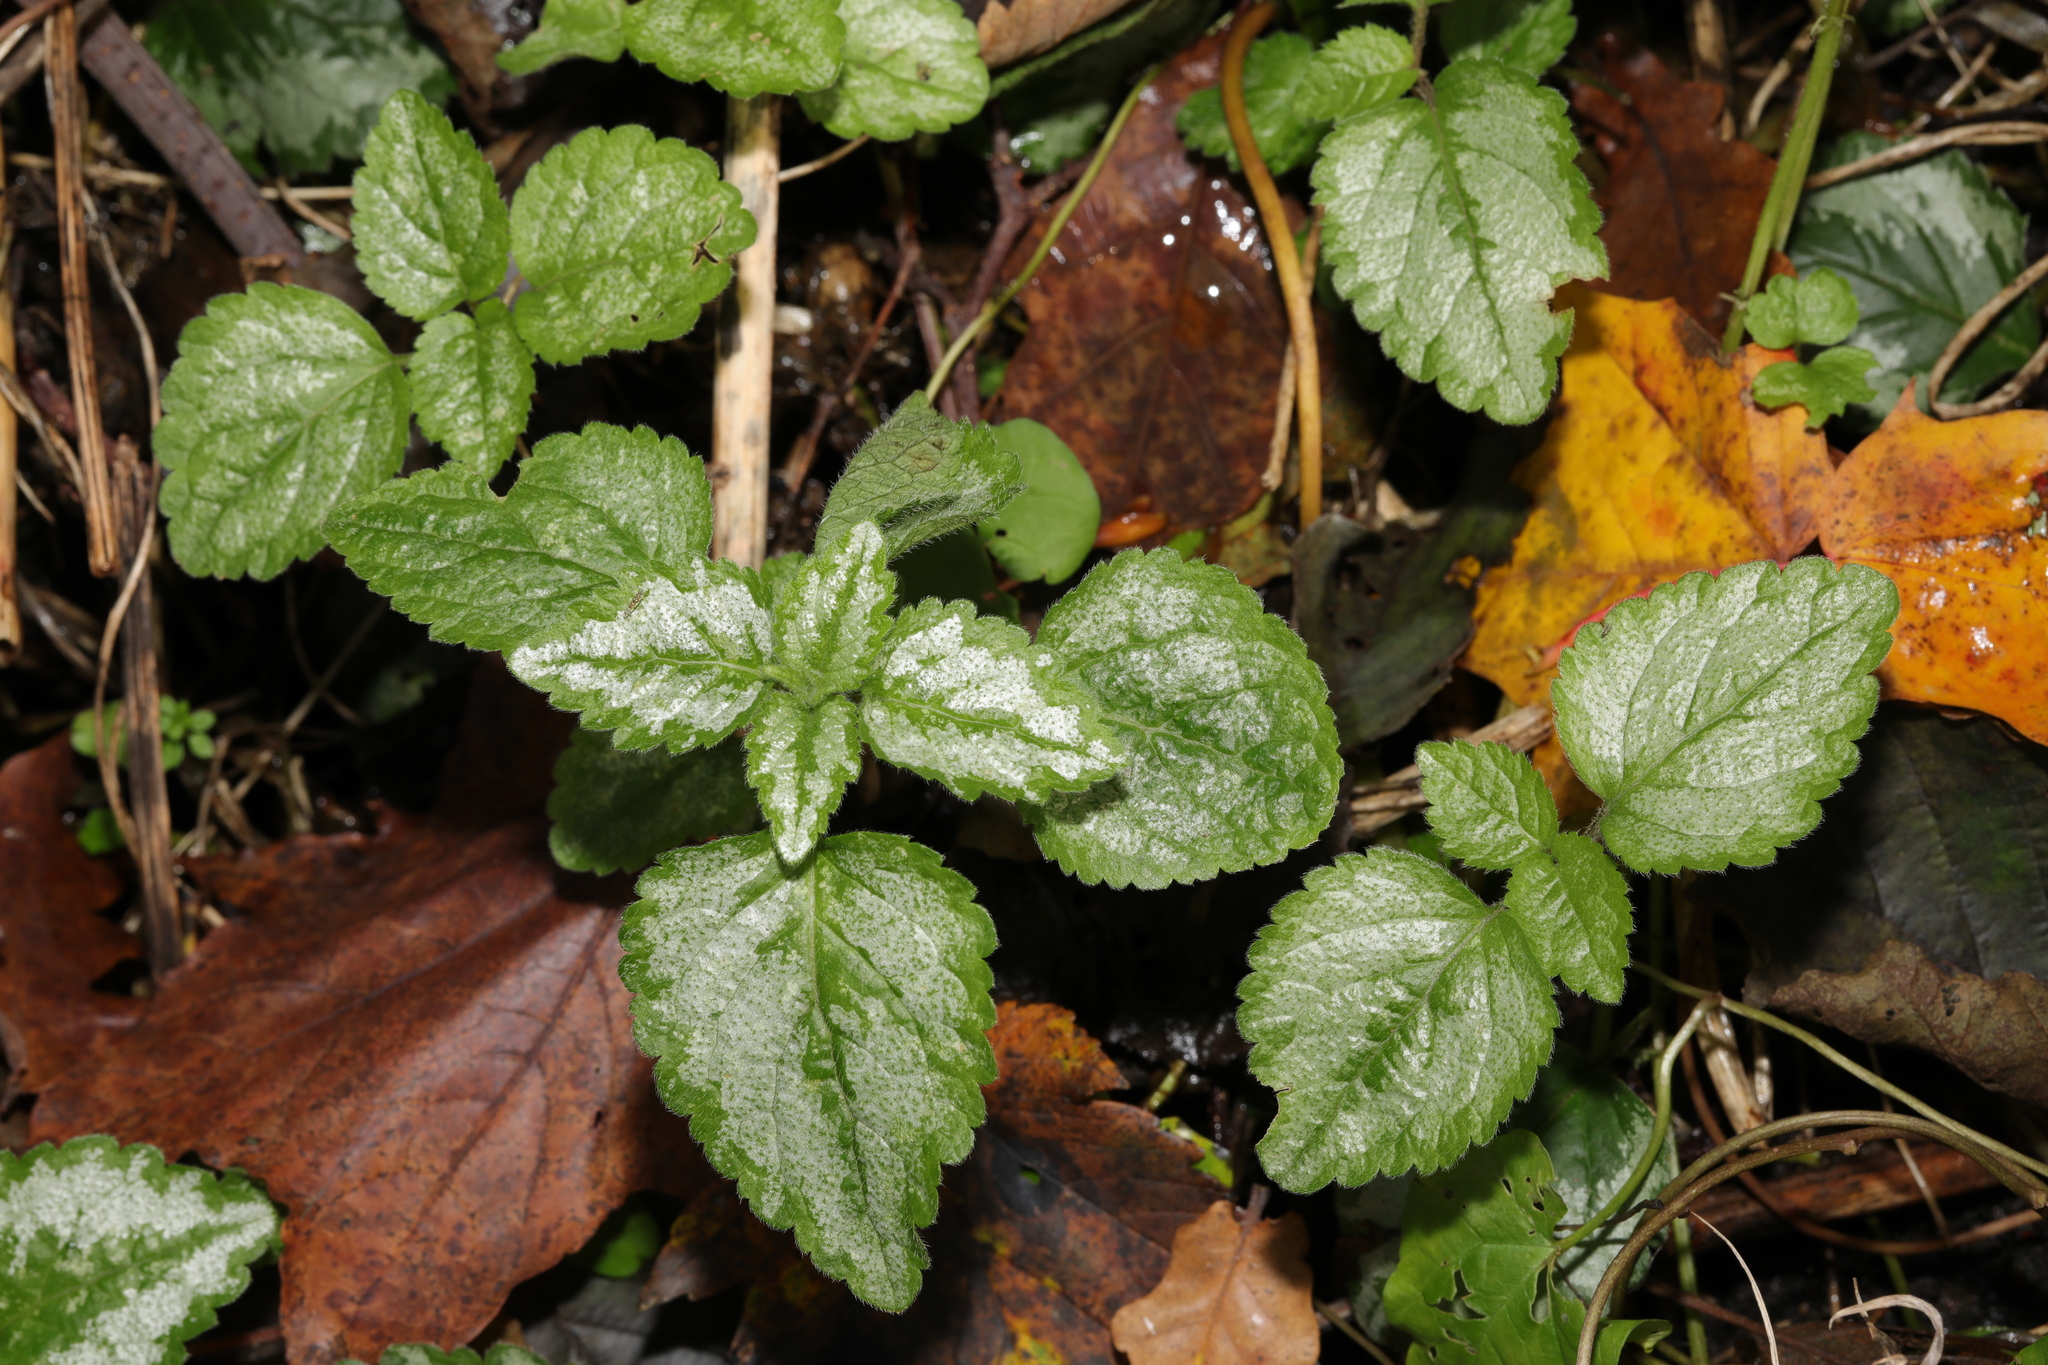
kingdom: Plantae
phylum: Tracheophyta
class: Magnoliopsida
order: Lamiales
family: Lamiaceae
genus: Lamium
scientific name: Lamium galeobdolon
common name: Yellow archangel
